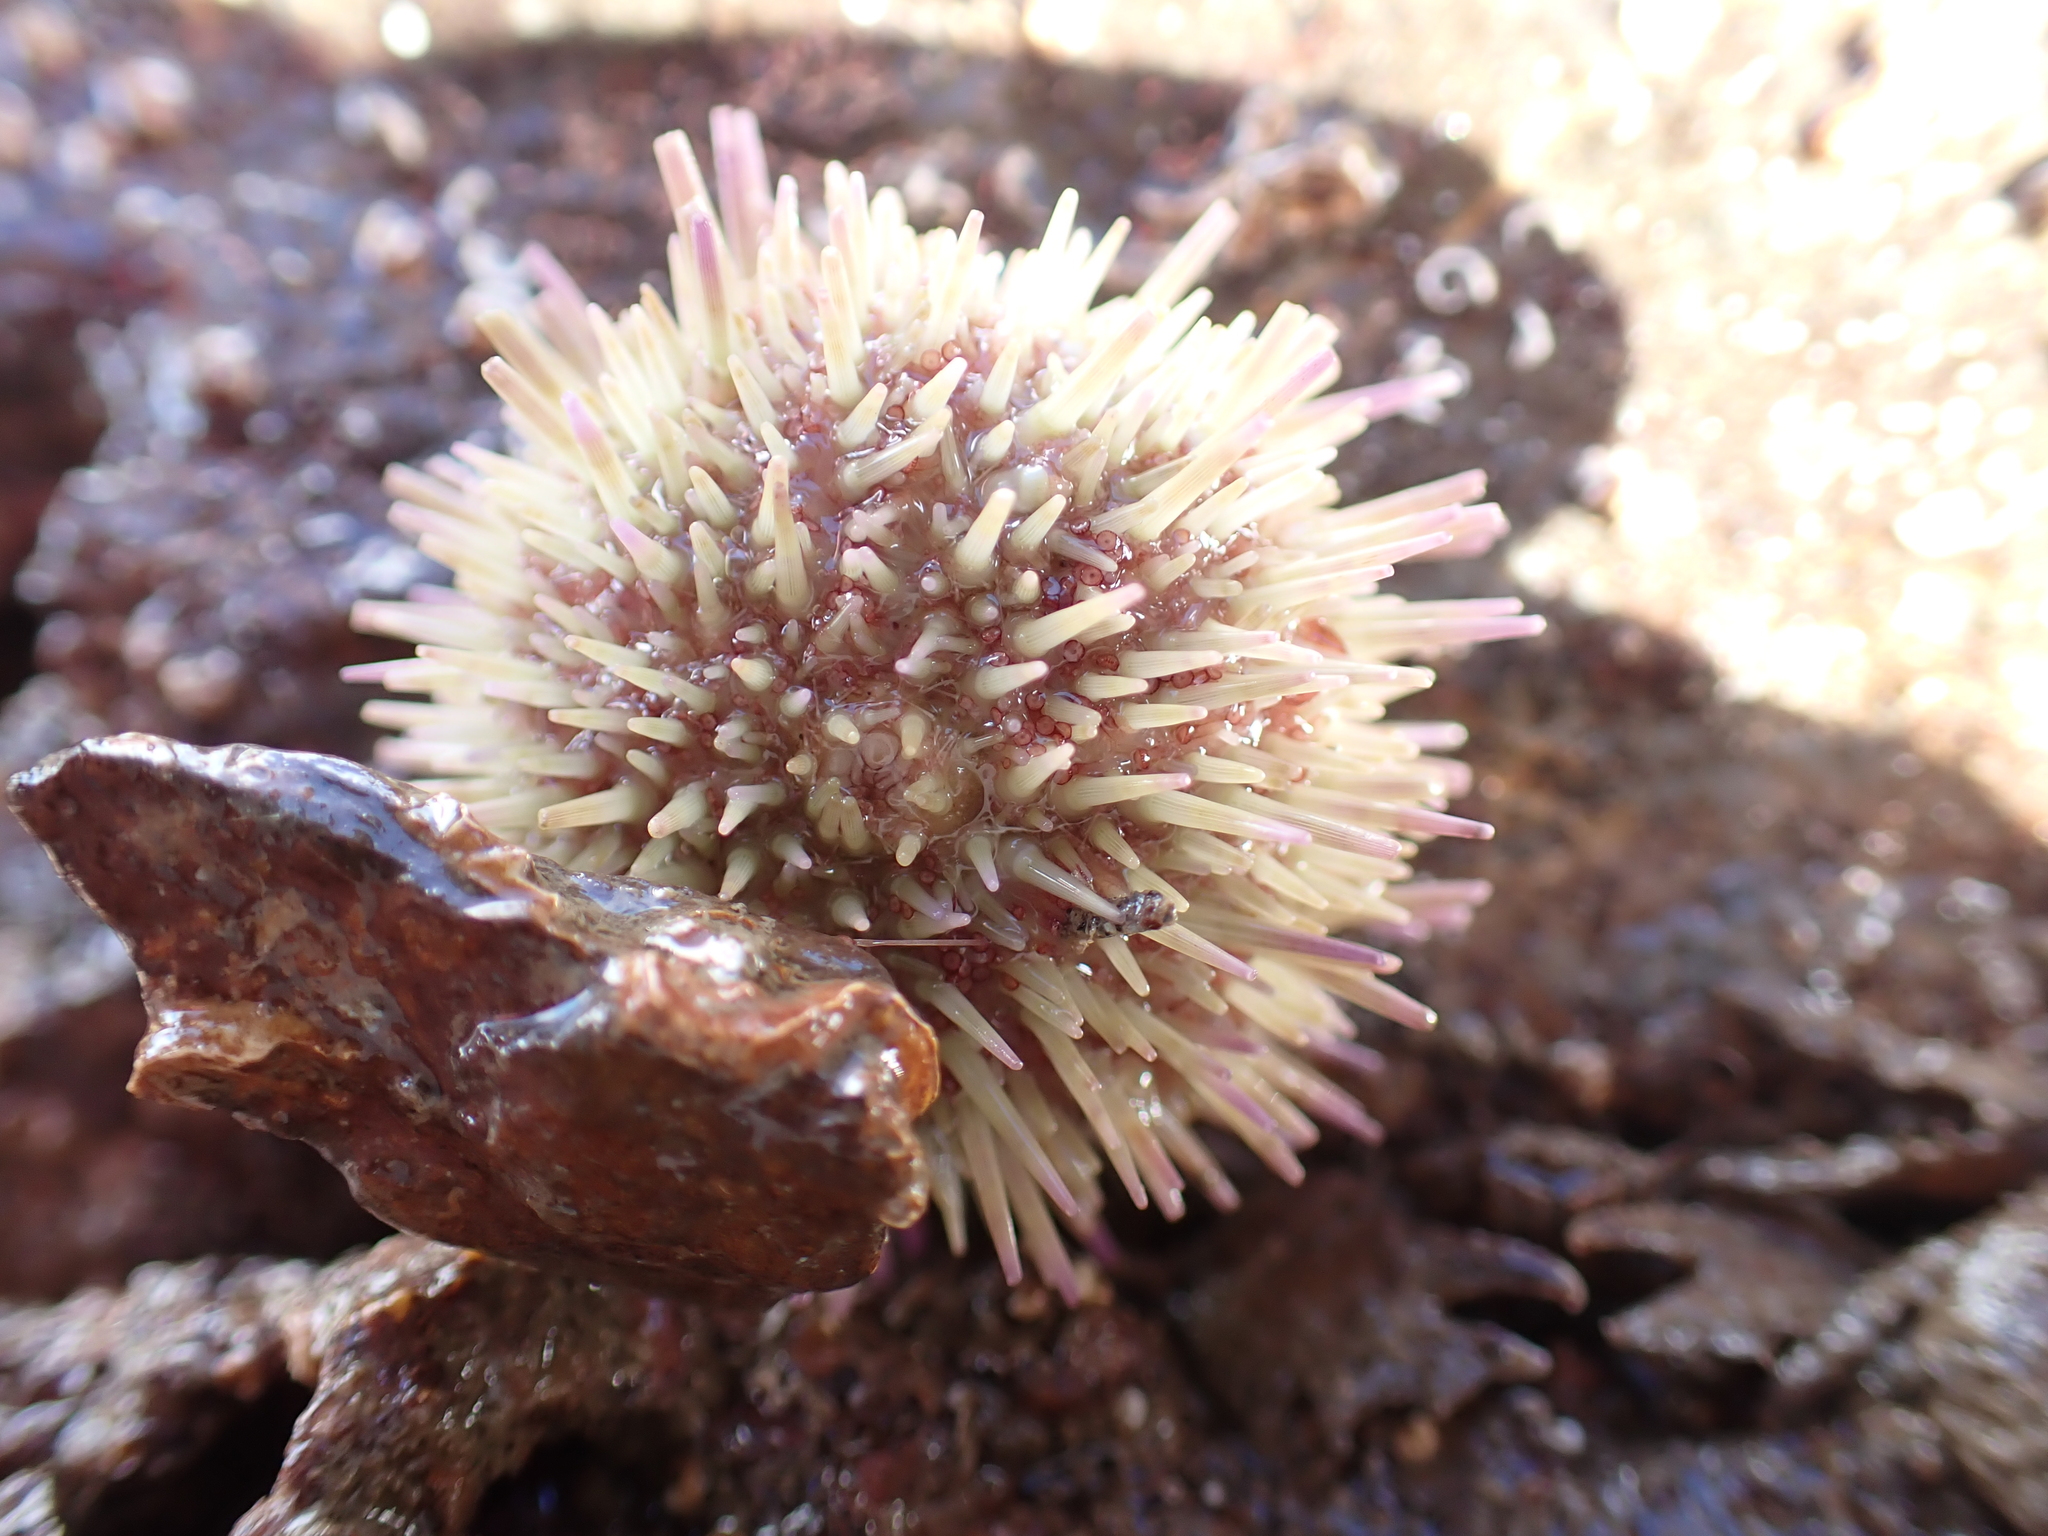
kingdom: Animalia
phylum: Echinodermata
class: Echinoidea
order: Camarodonta
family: Parechinidae
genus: Psammechinus
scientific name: Psammechinus miliaris
